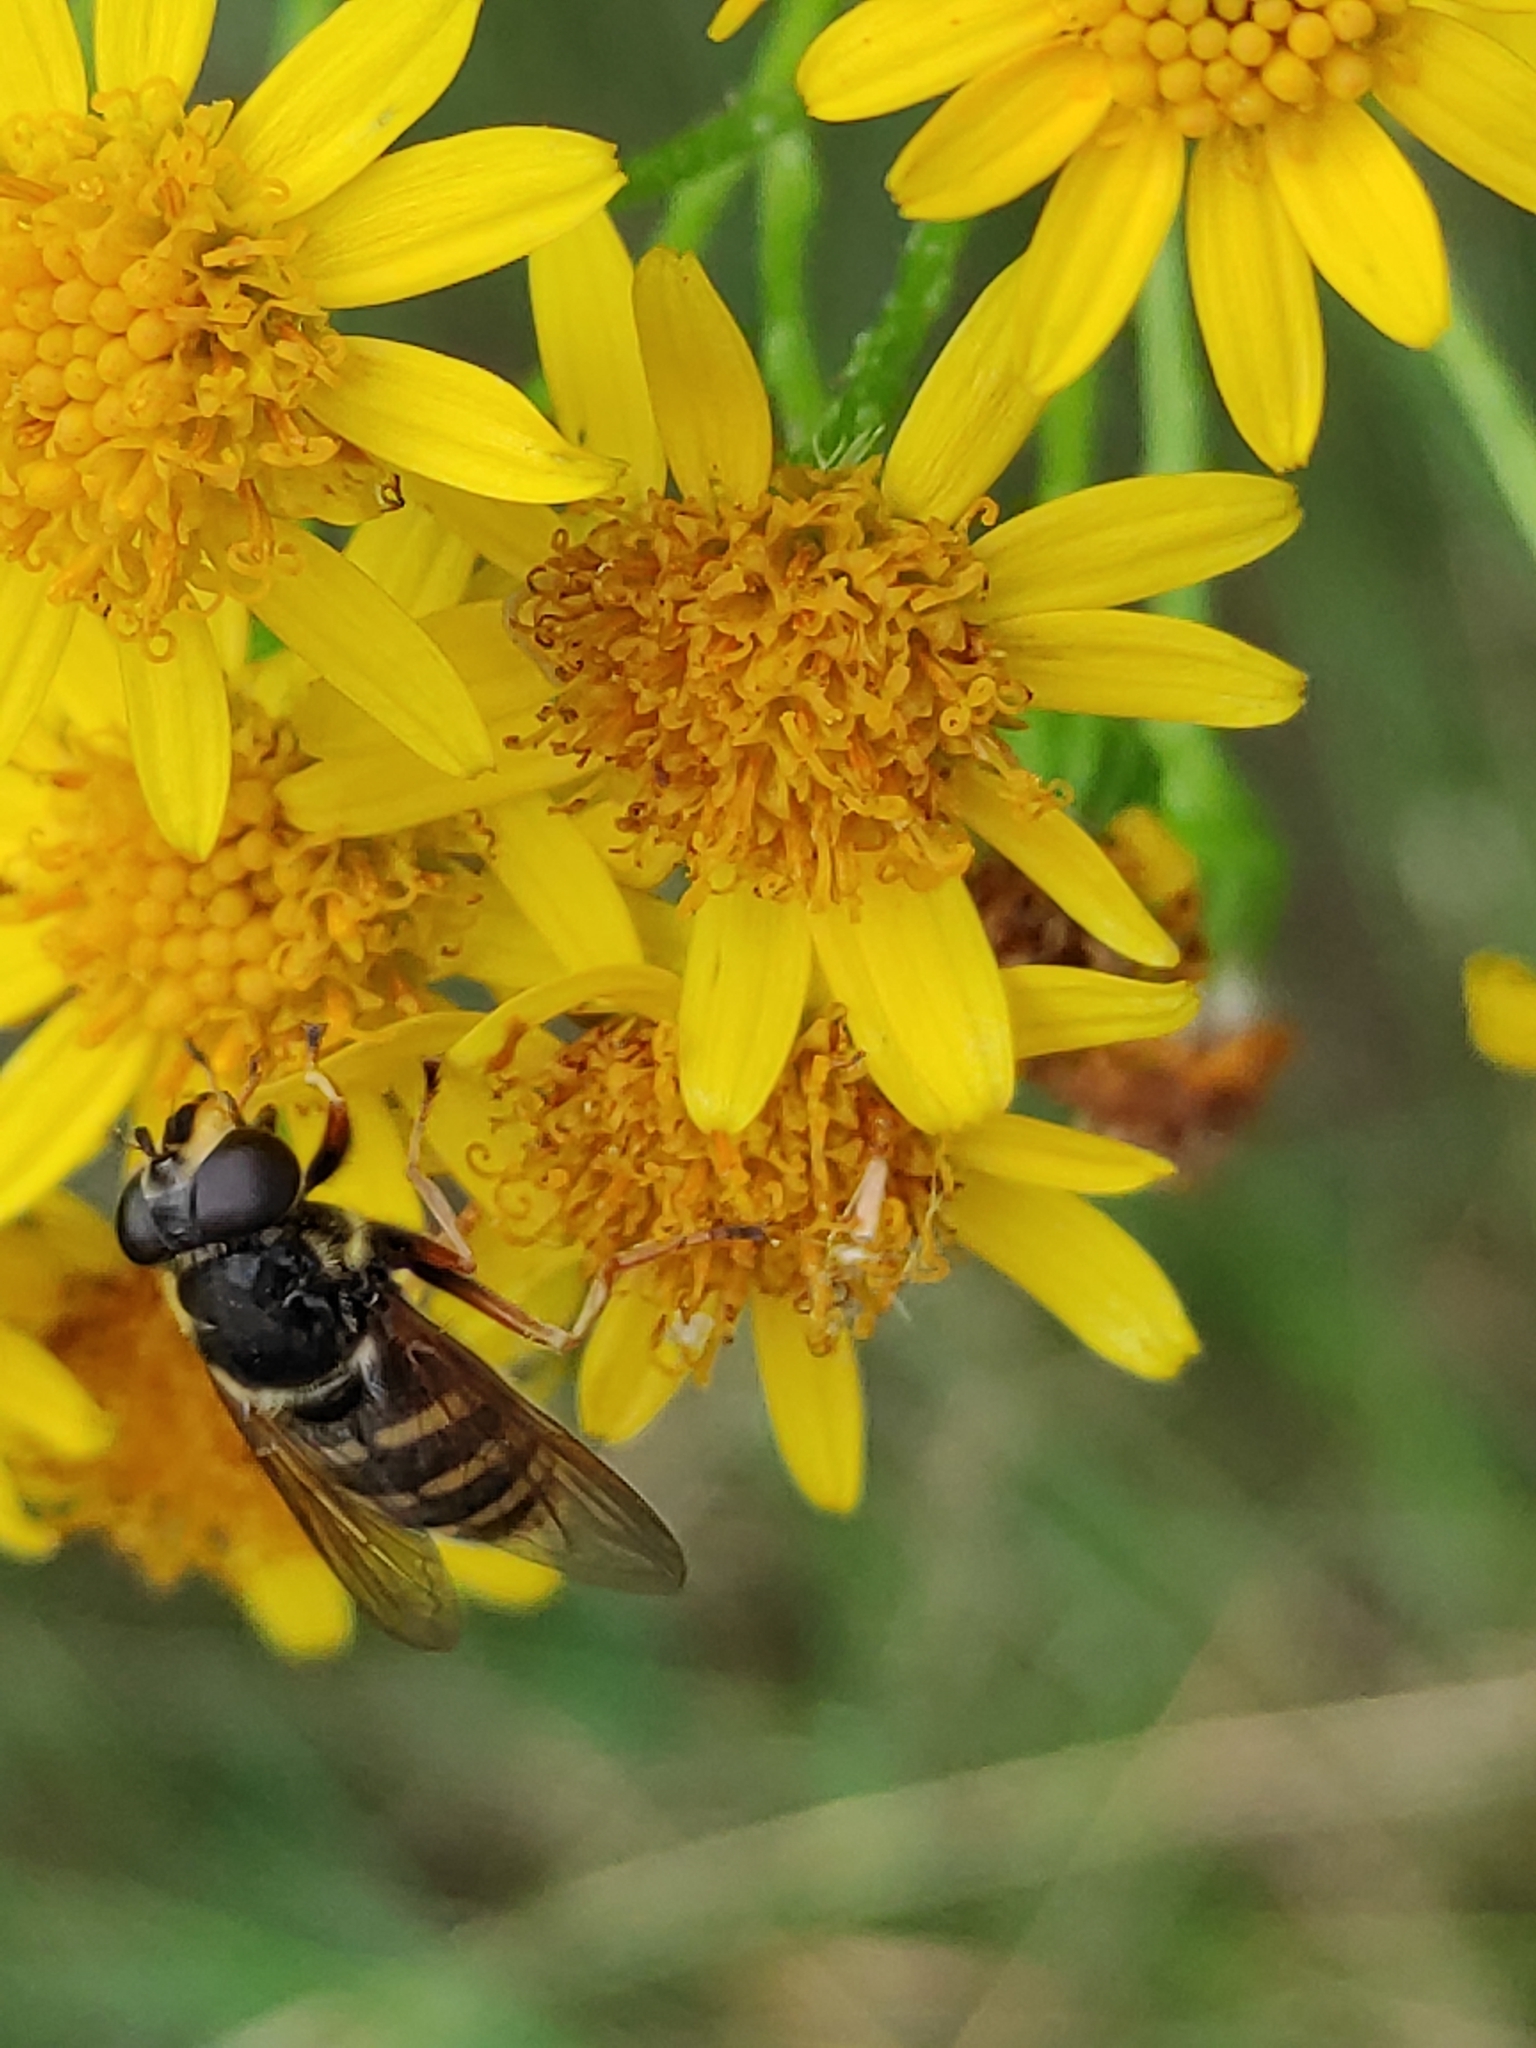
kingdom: Animalia
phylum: Arthropoda
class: Insecta
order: Diptera
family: Syrphidae
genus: Sericomyia
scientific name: Sericomyia silentis
